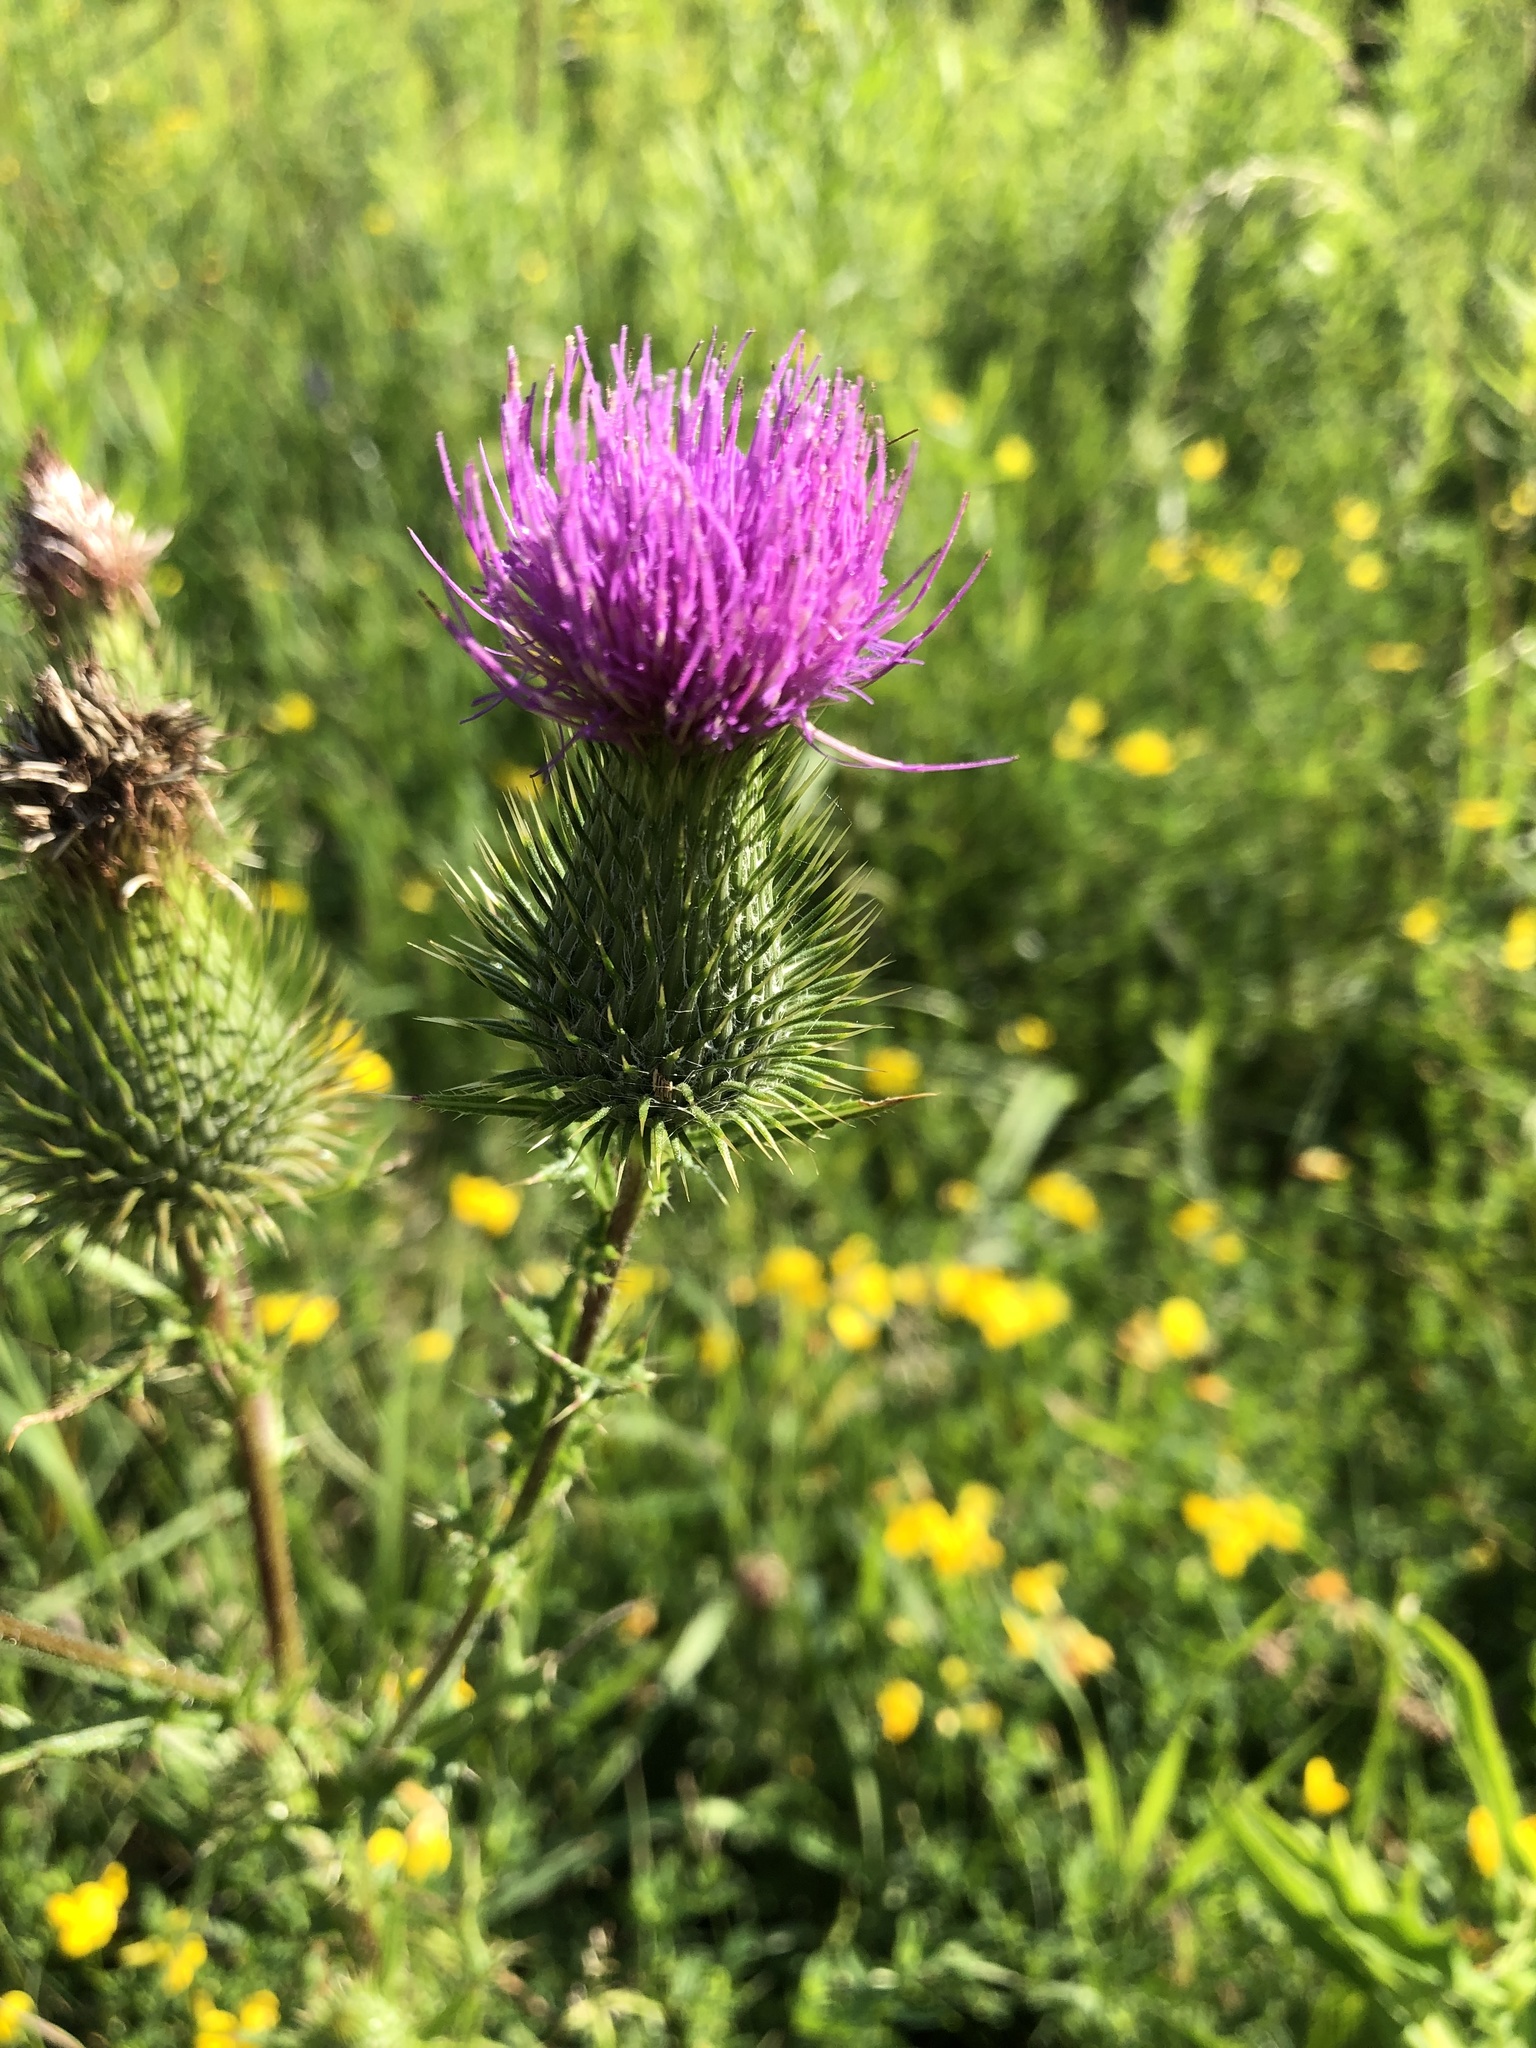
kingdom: Plantae
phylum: Tracheophyta
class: Magnoliopsida
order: Asterales
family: Asteraceae
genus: Cirsium
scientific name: Cirsium vulgare
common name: Bull thistle
